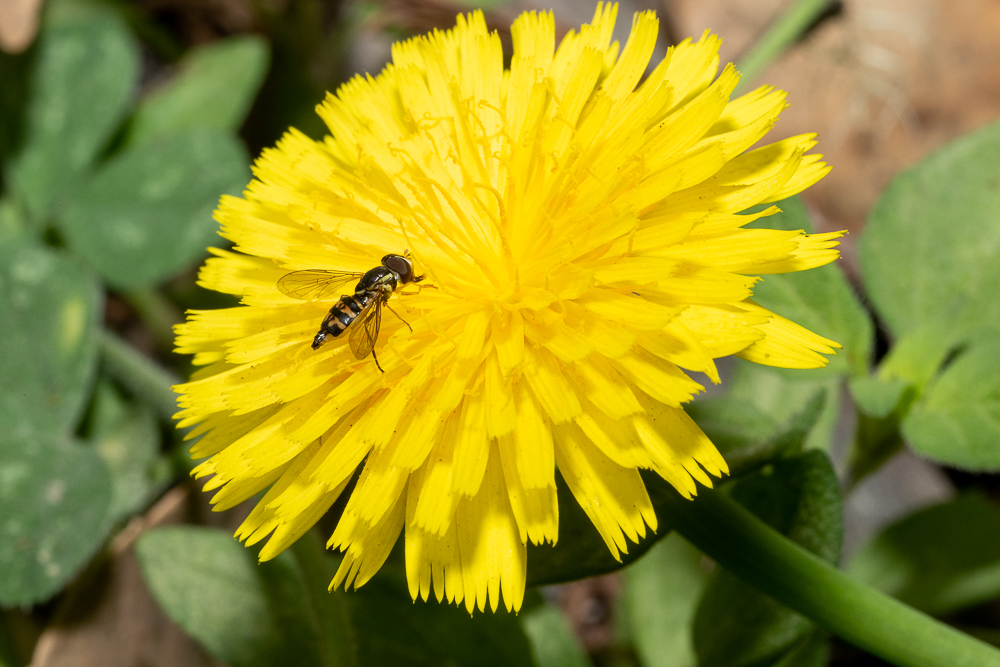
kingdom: Animalia
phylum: Arthropoda
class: Insecta
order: Diptera
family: Syrphidae
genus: Toxomerus
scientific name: Toxomerus occidentalis
